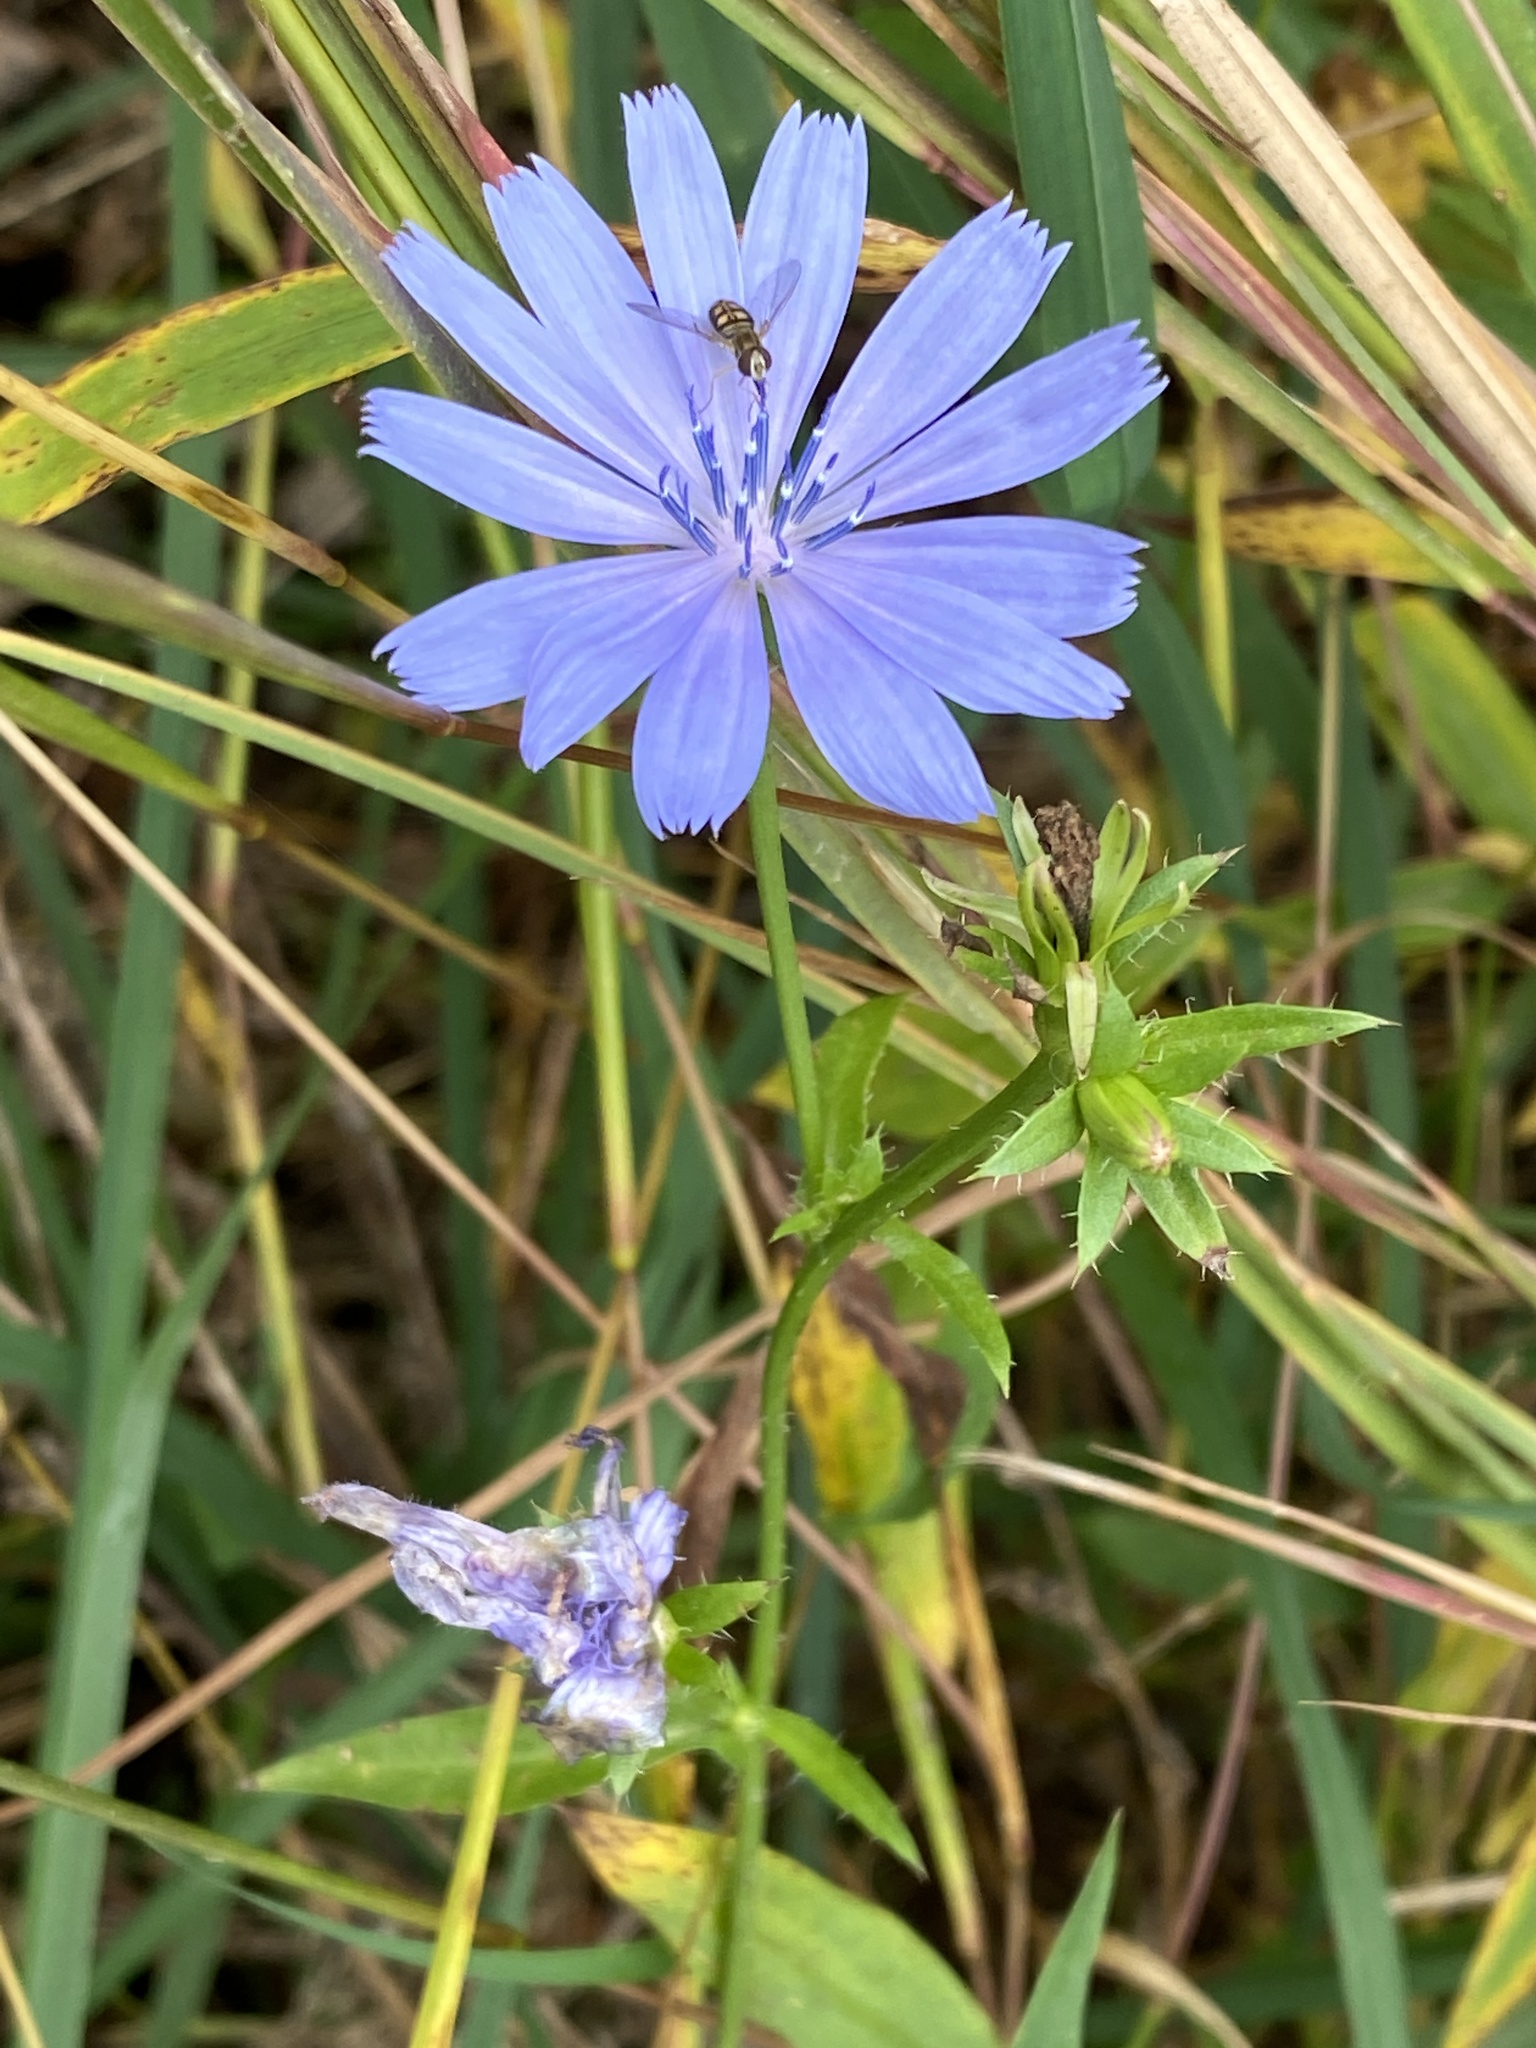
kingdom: Plantae
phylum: Tracheophyta
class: Magnoliopsida
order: Asterales
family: Asteraceae
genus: Cichorium
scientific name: Cichorium intybus
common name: Chicory
